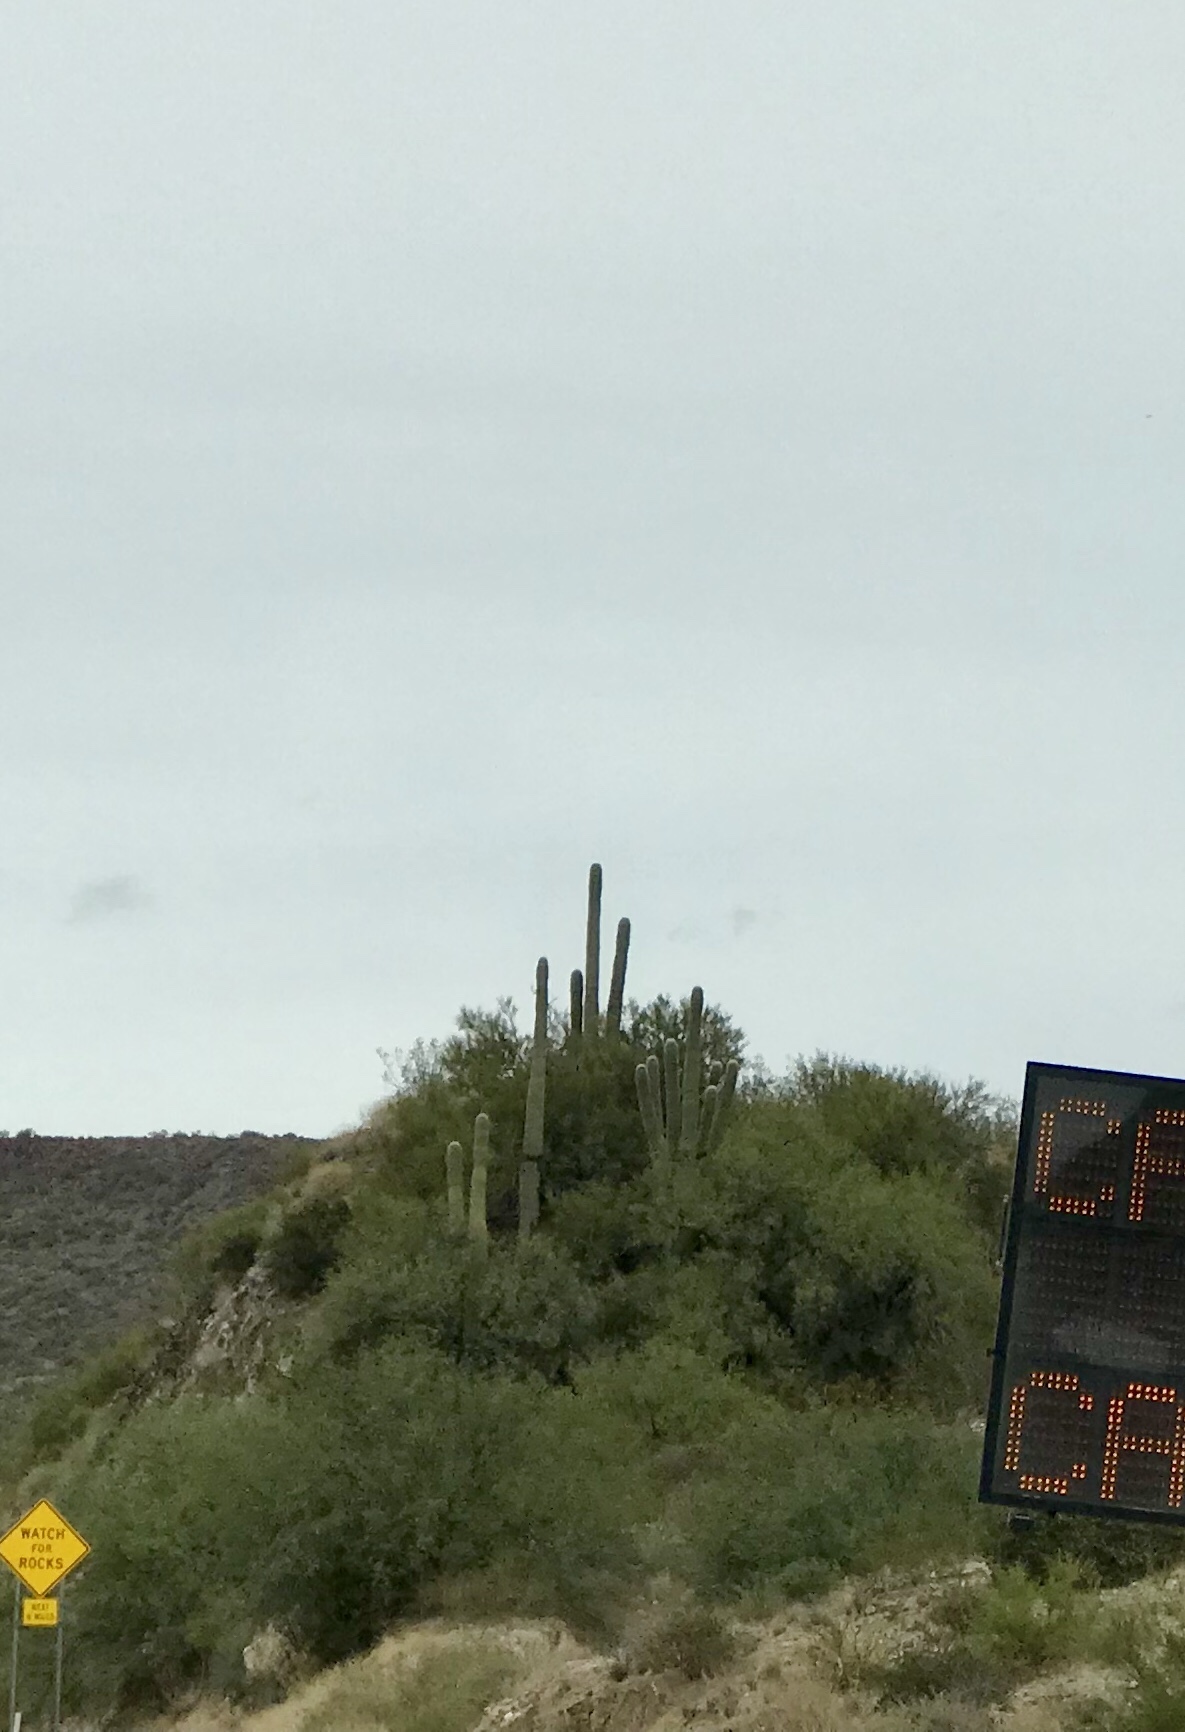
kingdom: Plantae
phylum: Tracheophyta
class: Magnoliopsida
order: Caryophyllales
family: Cactaceae
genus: Carnegiea
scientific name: Carnegiea gigantea
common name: Saguaro
